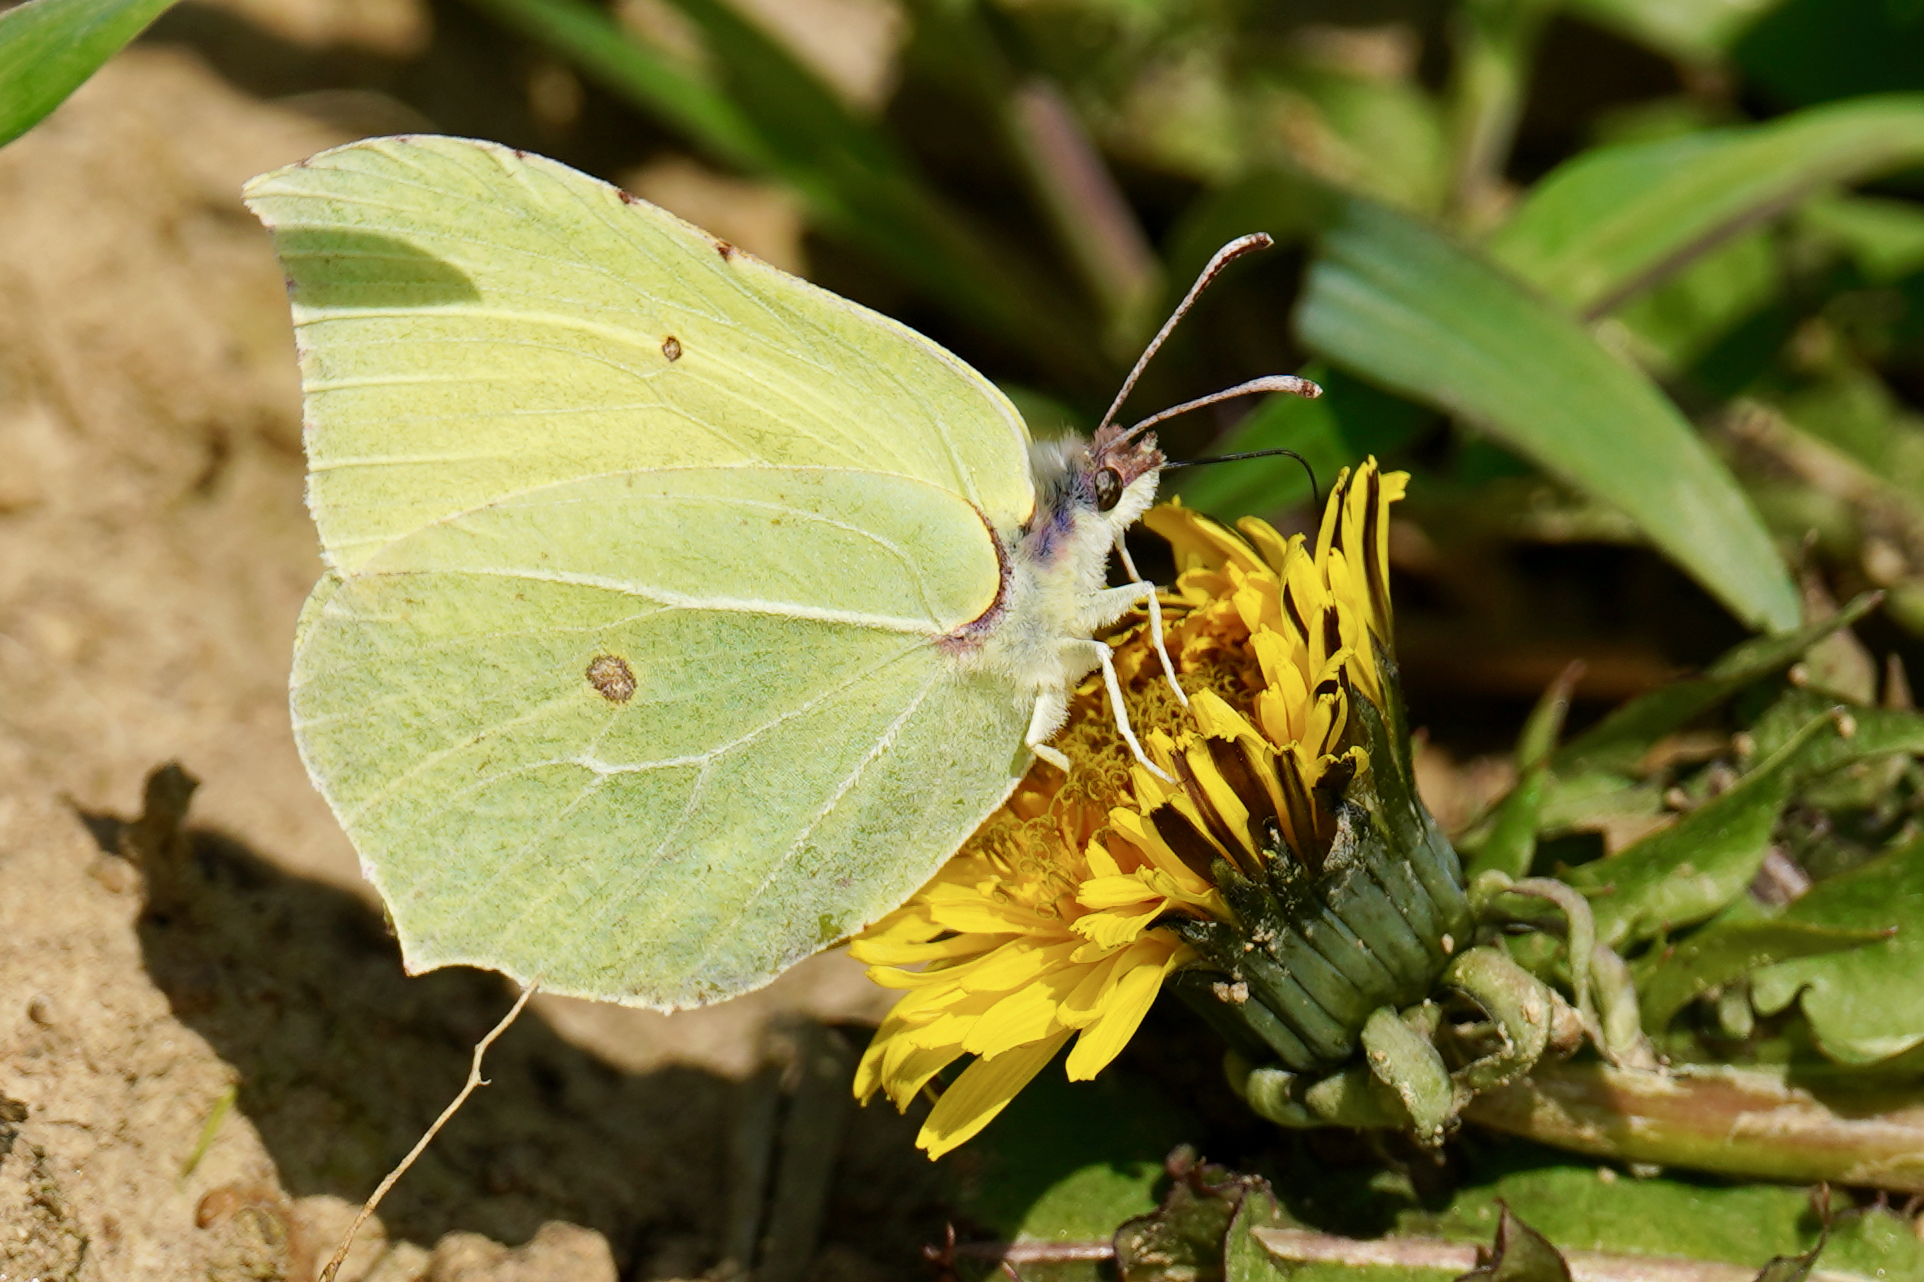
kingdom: Animalia
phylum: Arthropoda
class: Insecta
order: Lepidoptera
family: Pieridae
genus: Gonepteryx
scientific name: Gonepteryx rhamni
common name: Brimstone
